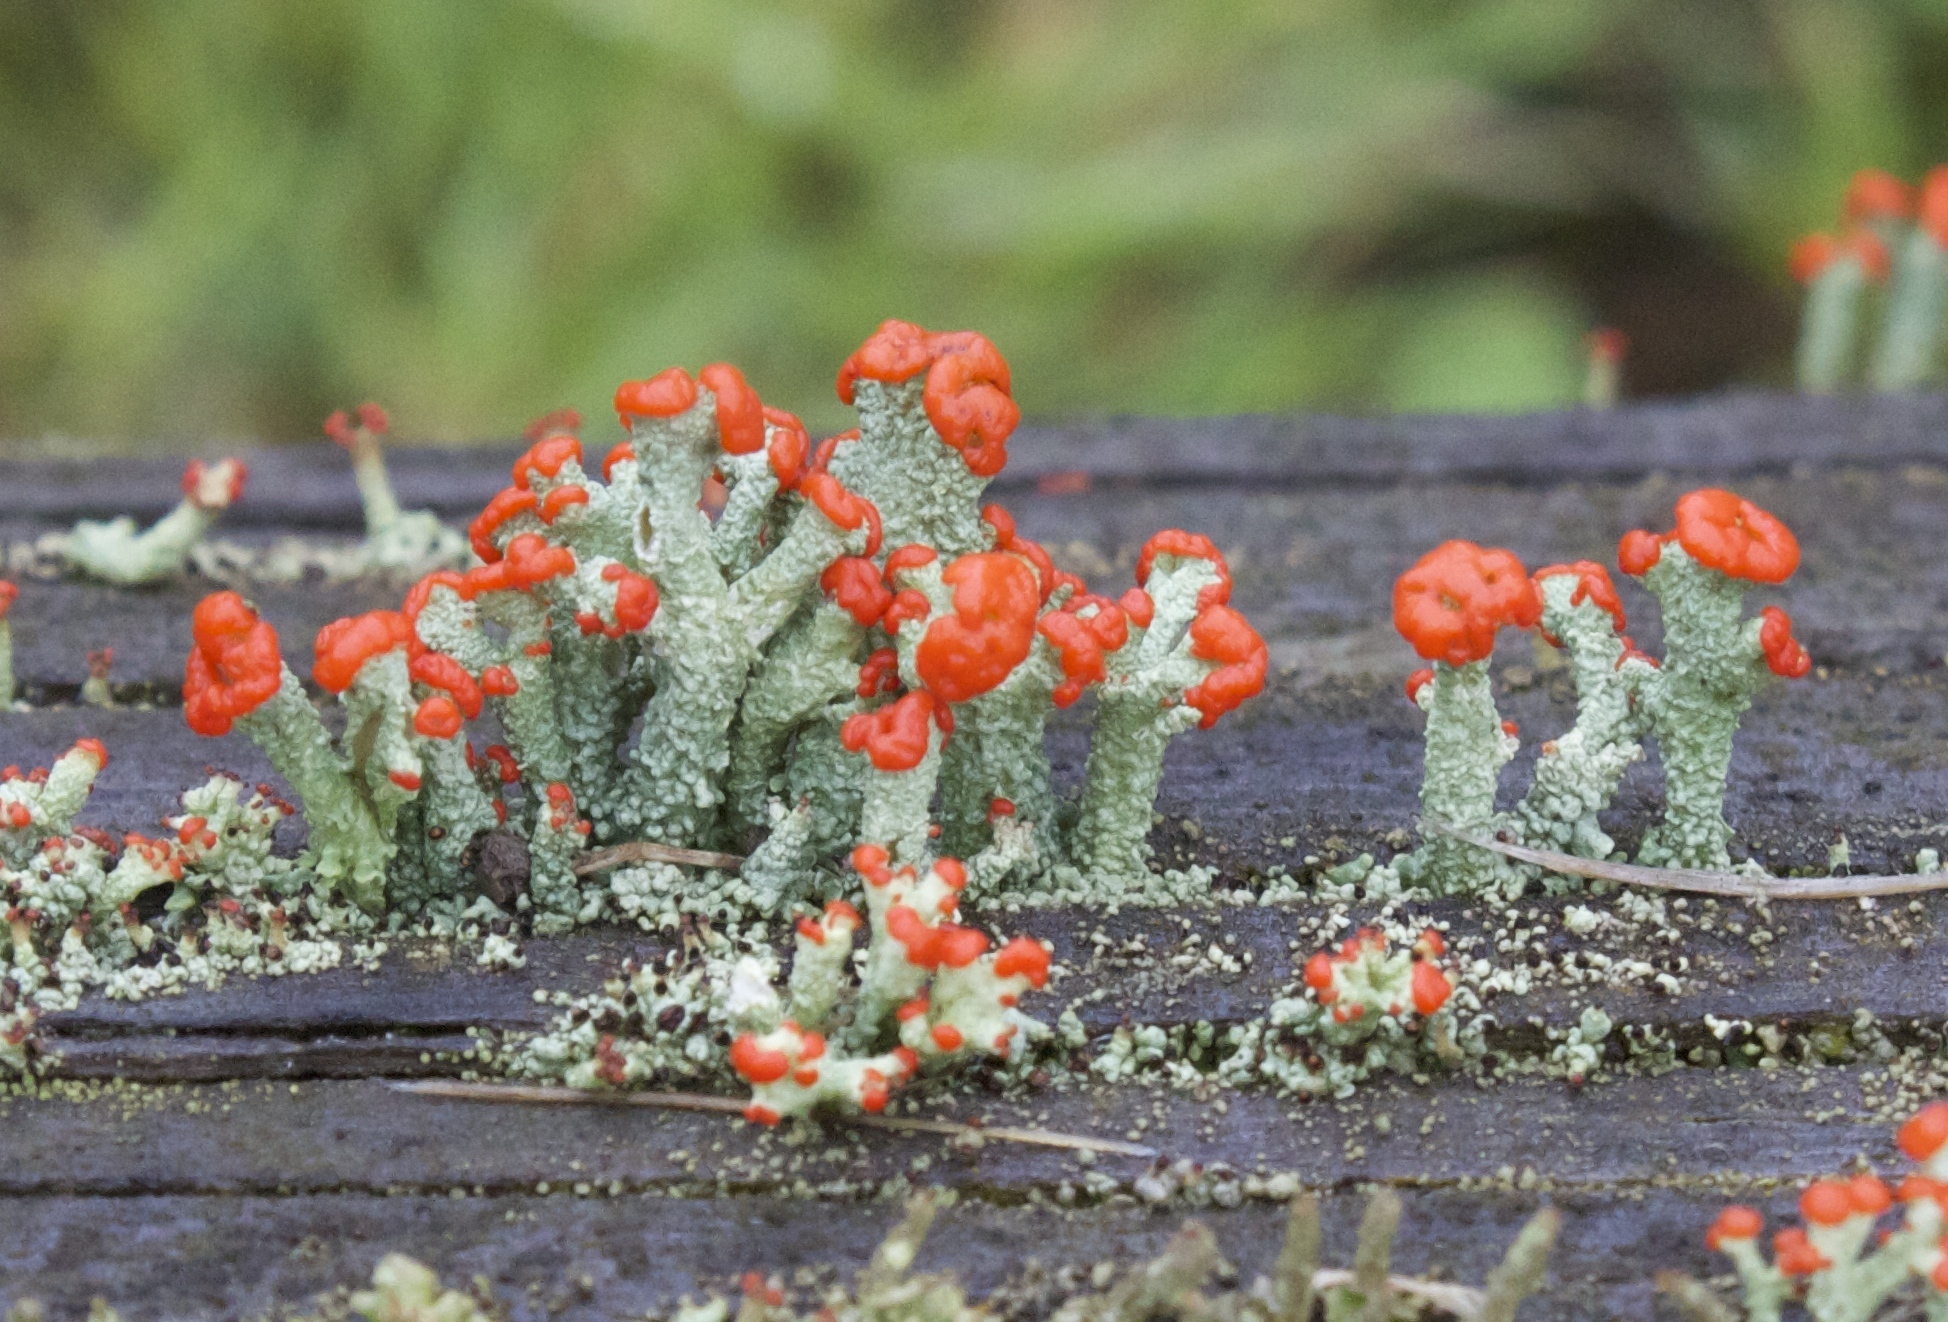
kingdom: Fungi
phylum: Ascomycota
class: Lecanoromycetes
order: Lecanorales
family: Cladoniaceae
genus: Cladonia
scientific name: Cladonia cristatella
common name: British soldier lichen
